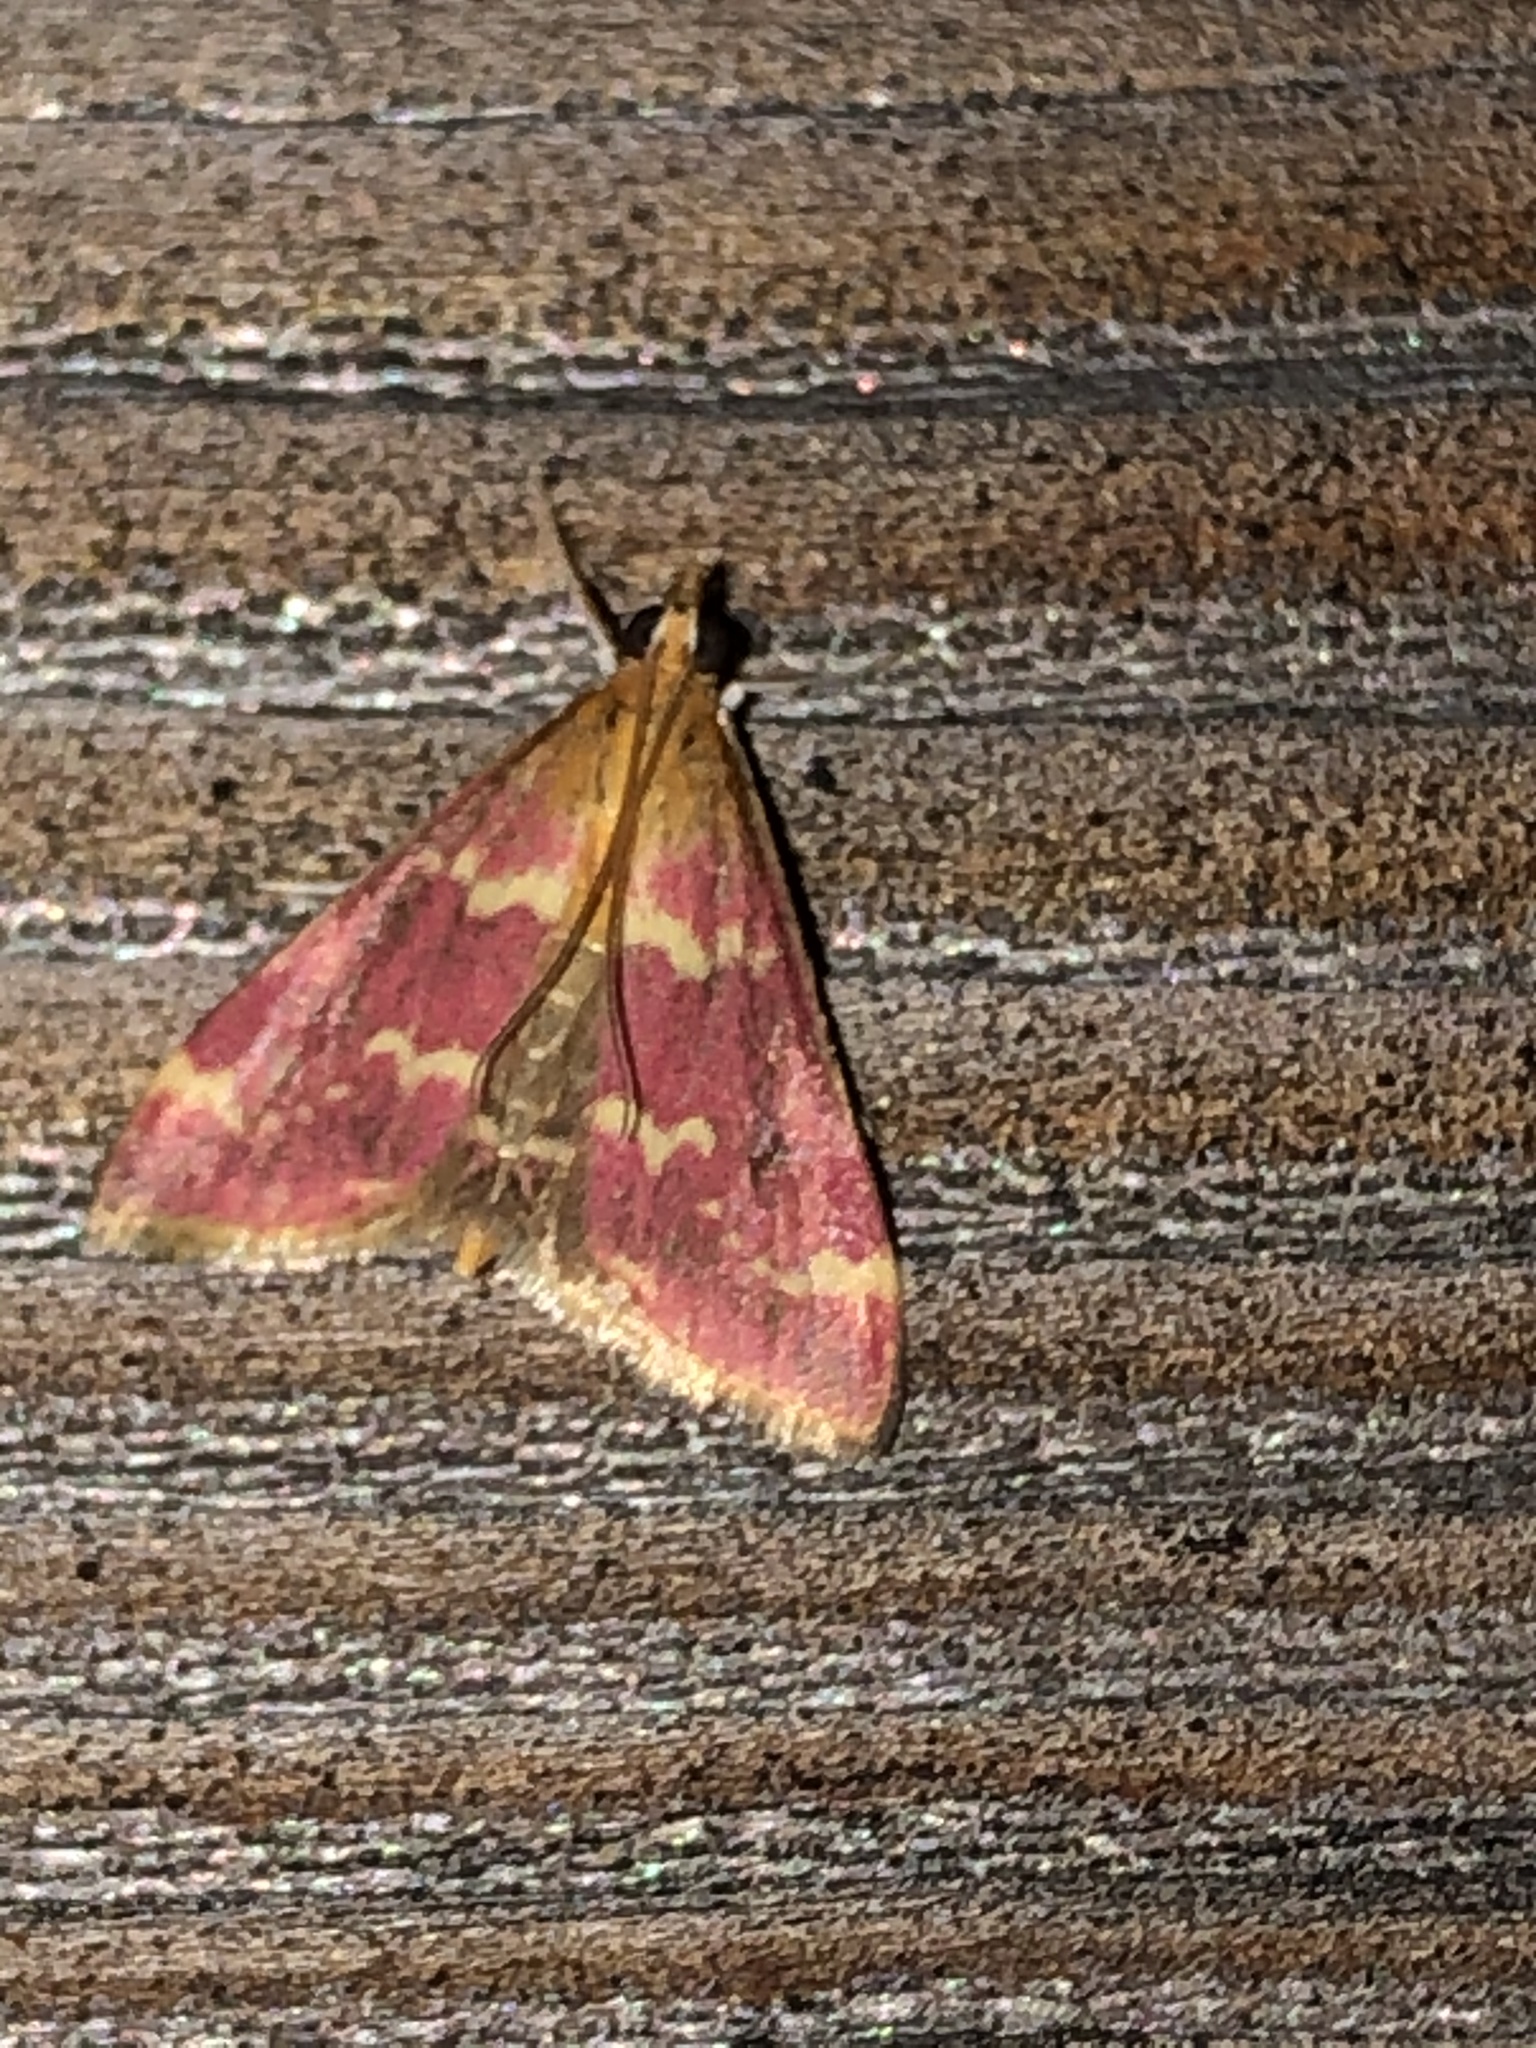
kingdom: Animalia
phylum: Arthropoda
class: Insecta
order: Lepidoptera
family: Crambidae
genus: Pyrausta
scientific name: Pyrausta signatalis
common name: Raspberry pyrausta moth
